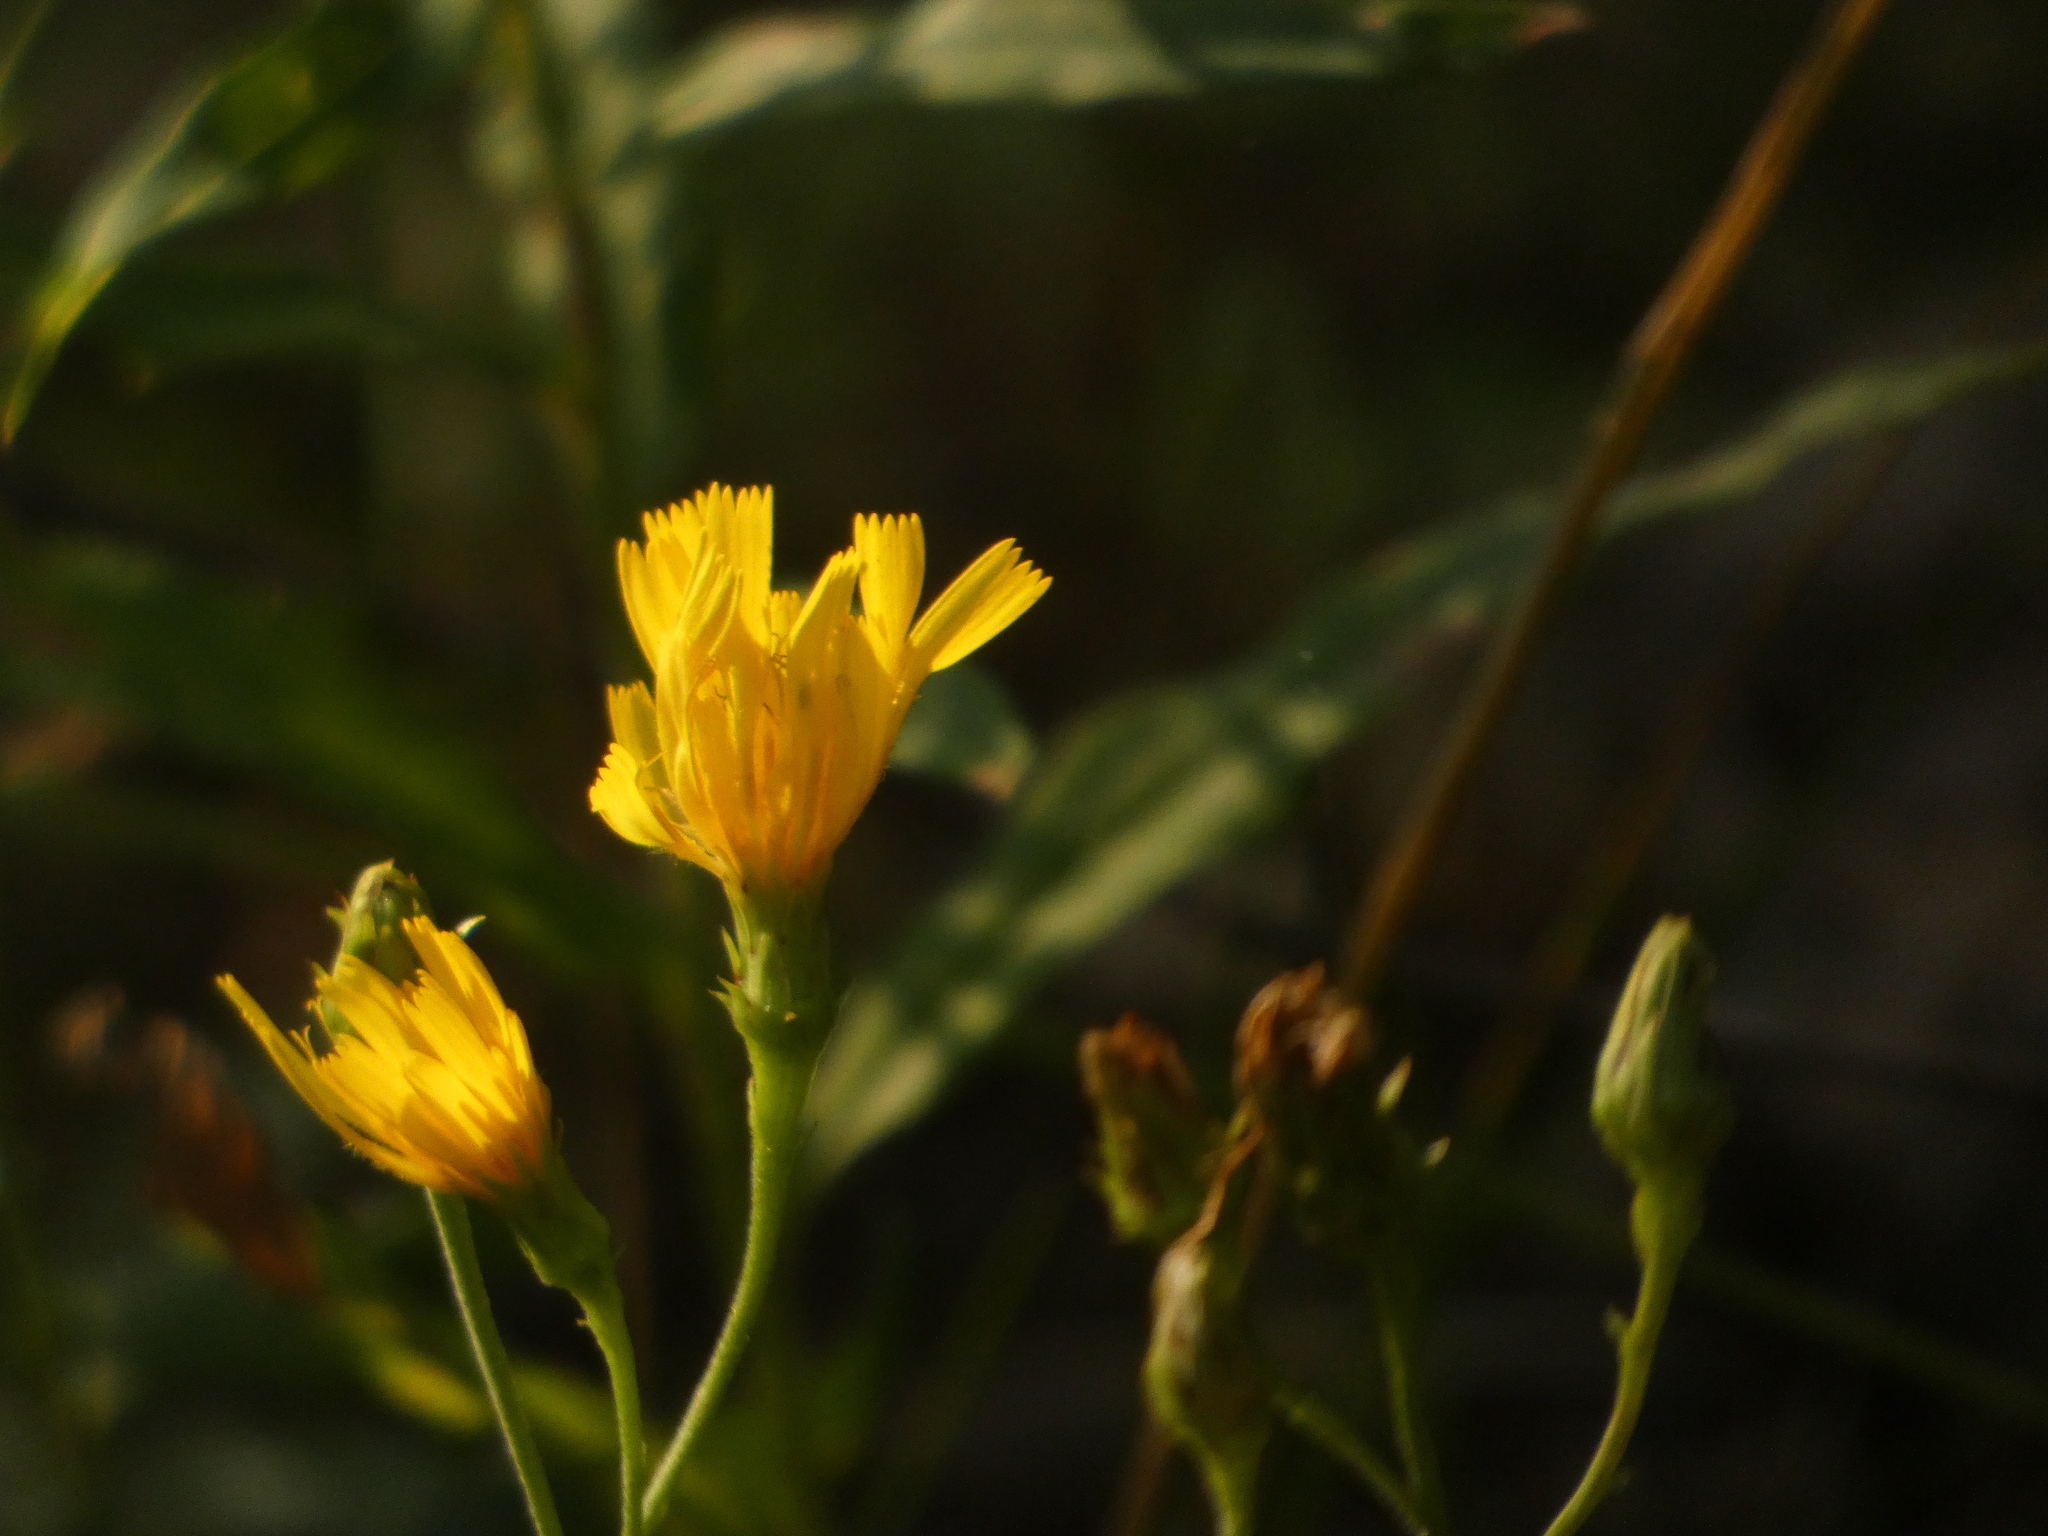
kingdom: Plantae
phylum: Tracheophyta
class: Magnoliopsida
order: Asterales
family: Asteraceae
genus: Hieracium
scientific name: Hieracium umbellatum
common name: Northern hawkweed
